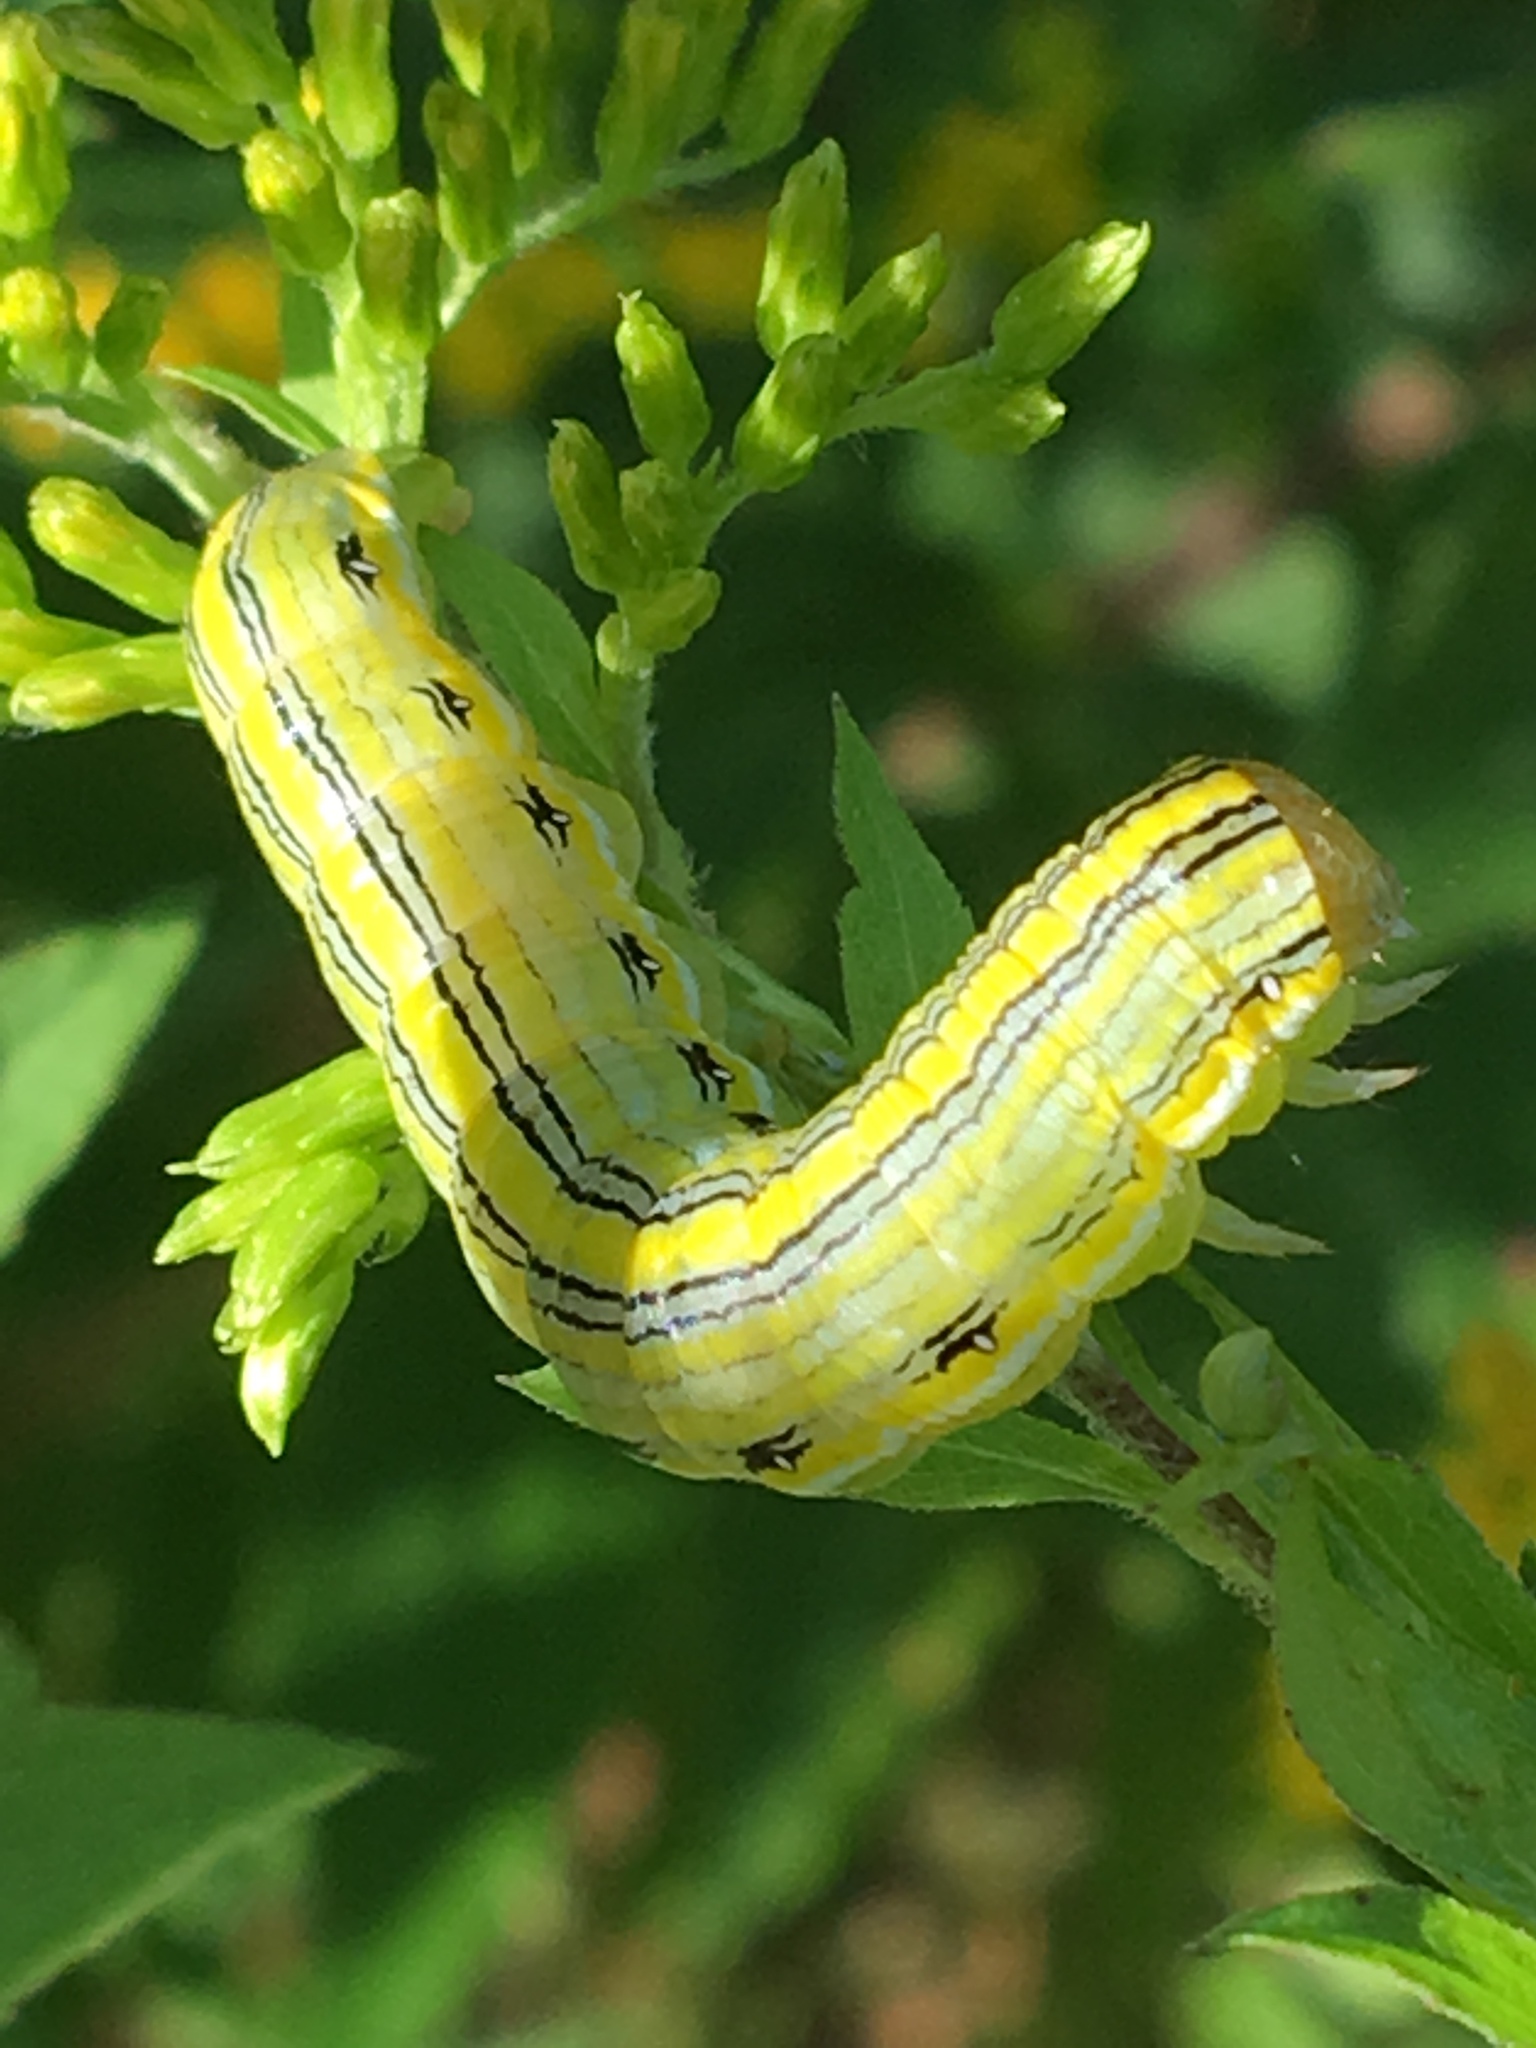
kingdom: Animalia
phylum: Arthropoda
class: Insecta
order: Lepidoptera
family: Noctuidae
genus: Cucullia
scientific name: Cucullia asteroides
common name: Asteroid moth
